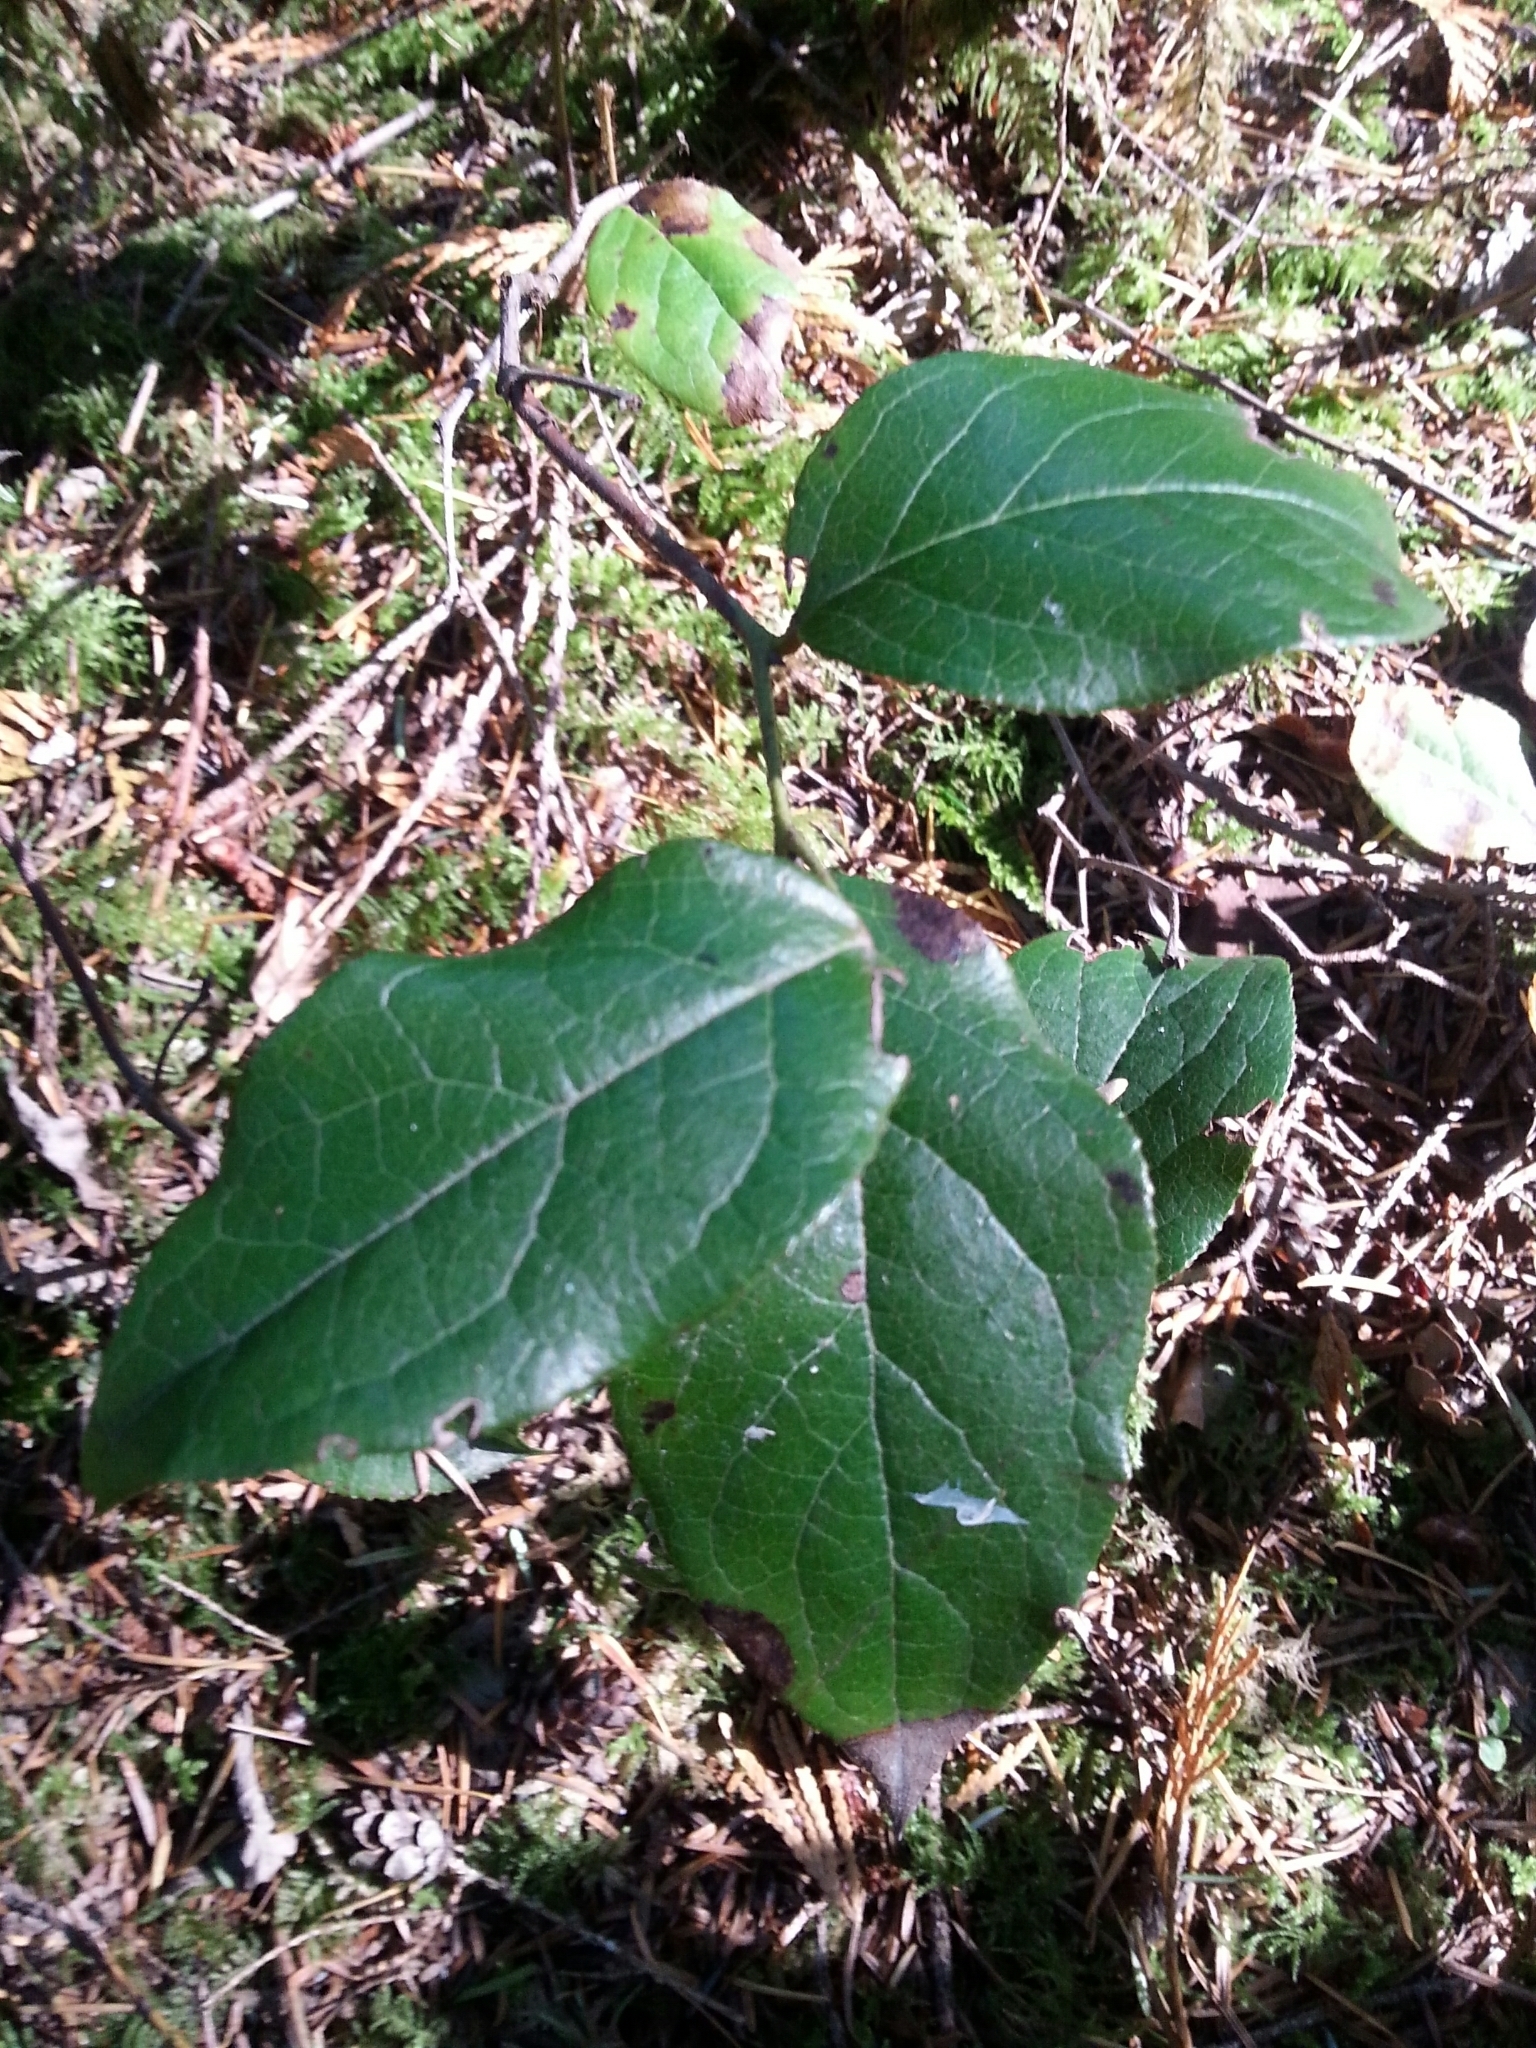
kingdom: Plantae
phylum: Tracheophyta
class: Magnoliopsida
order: Ericales
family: Ericaceae
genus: Gaultheria
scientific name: Gaultheria shallon
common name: Shallon
